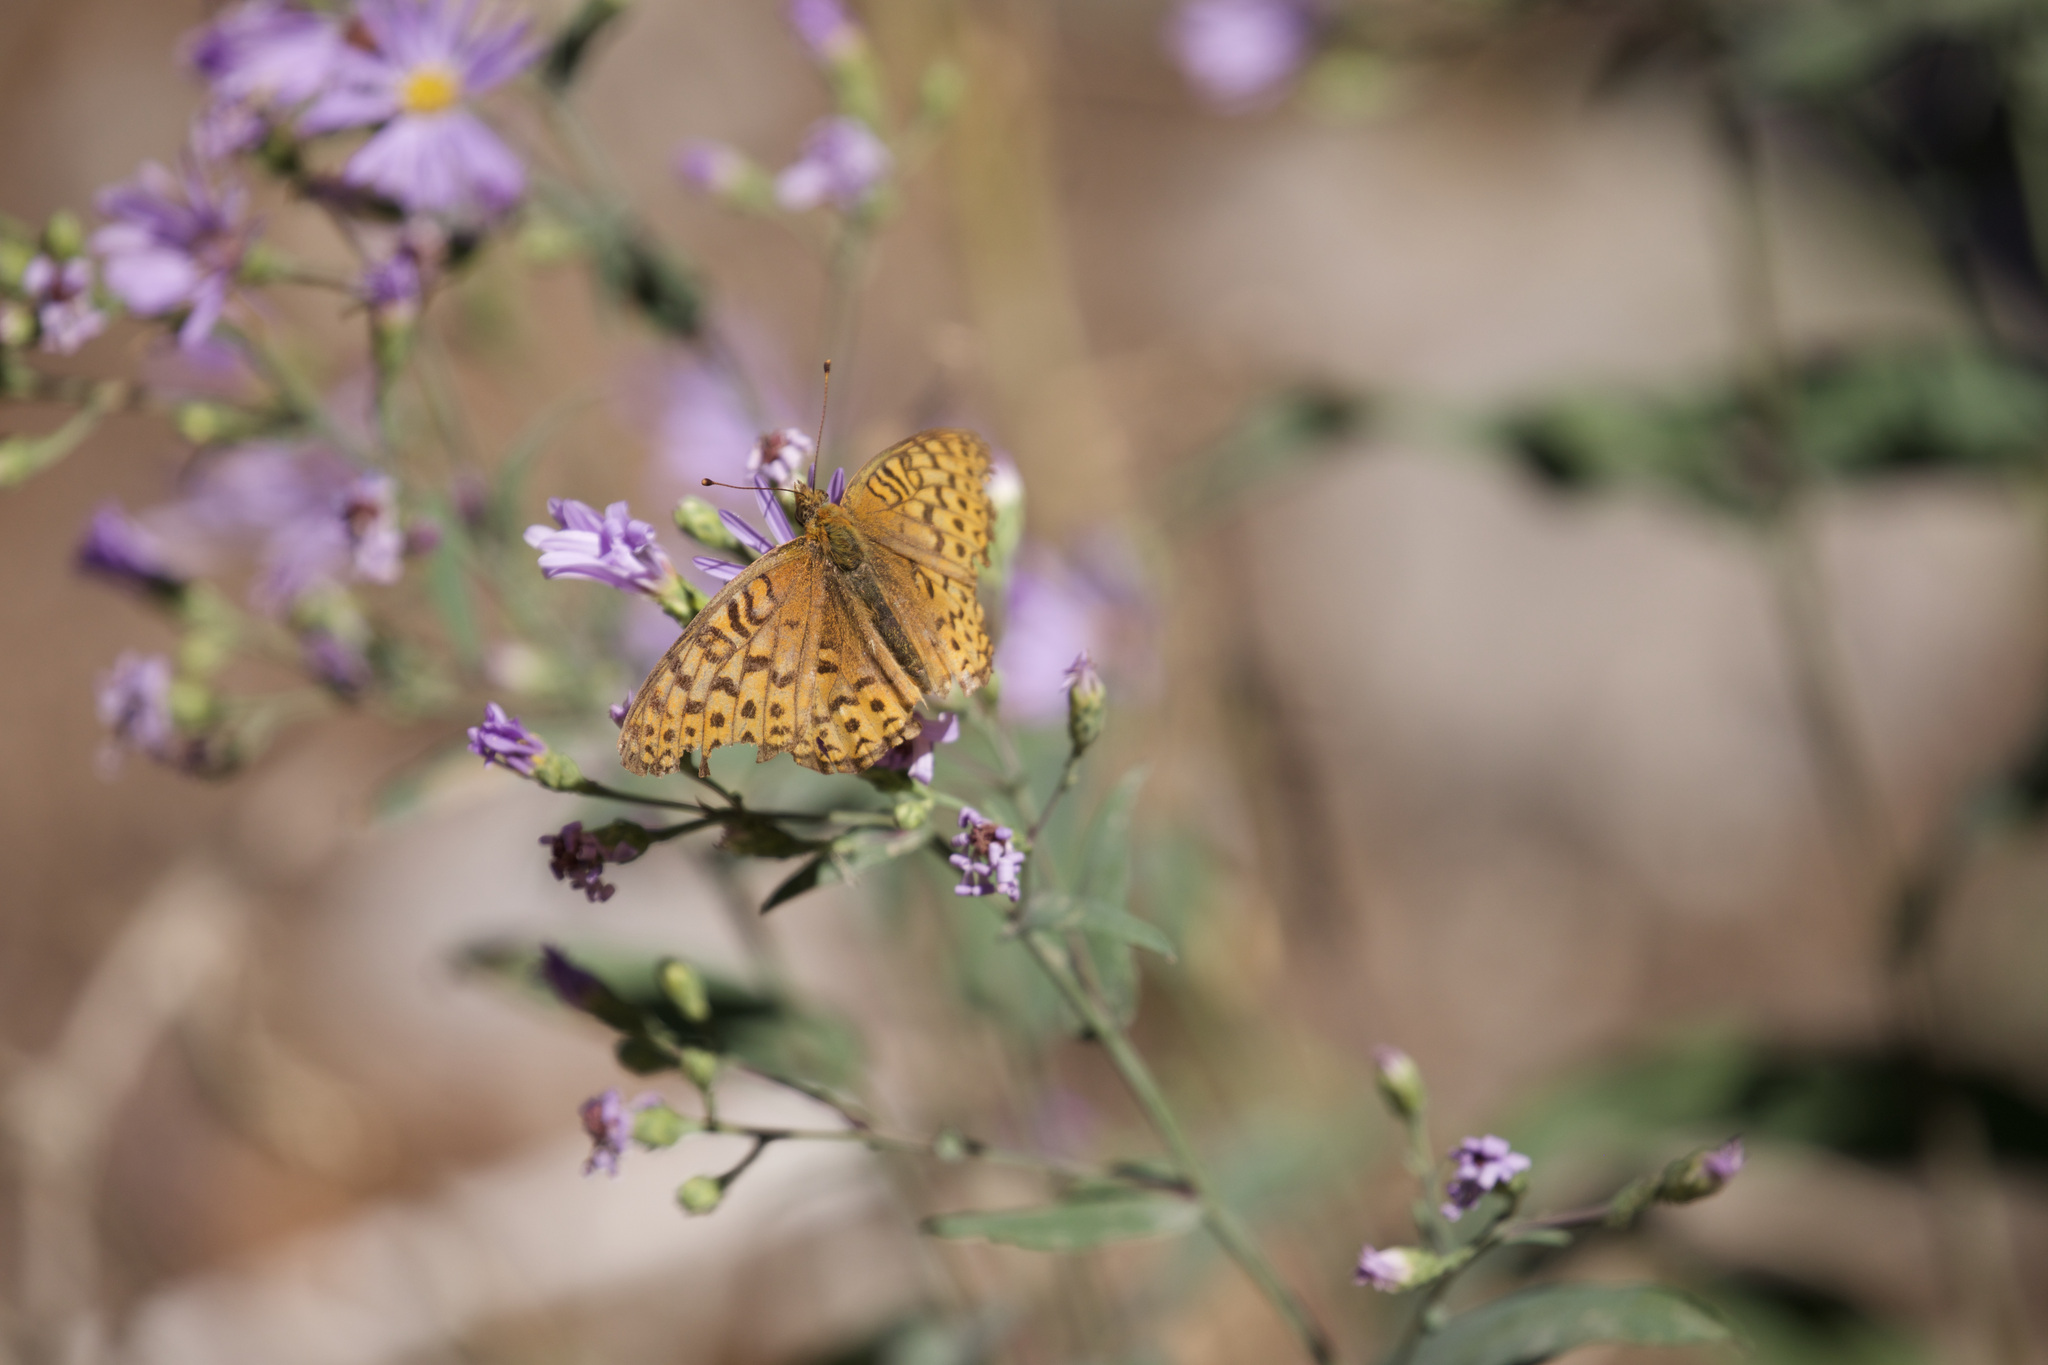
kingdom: Animalia
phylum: Arthropoda
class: Insecta
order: Lepidoptera
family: Nymphalidae
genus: Speyeria
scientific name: Speyeria atlantis
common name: Atlantis fritillary
